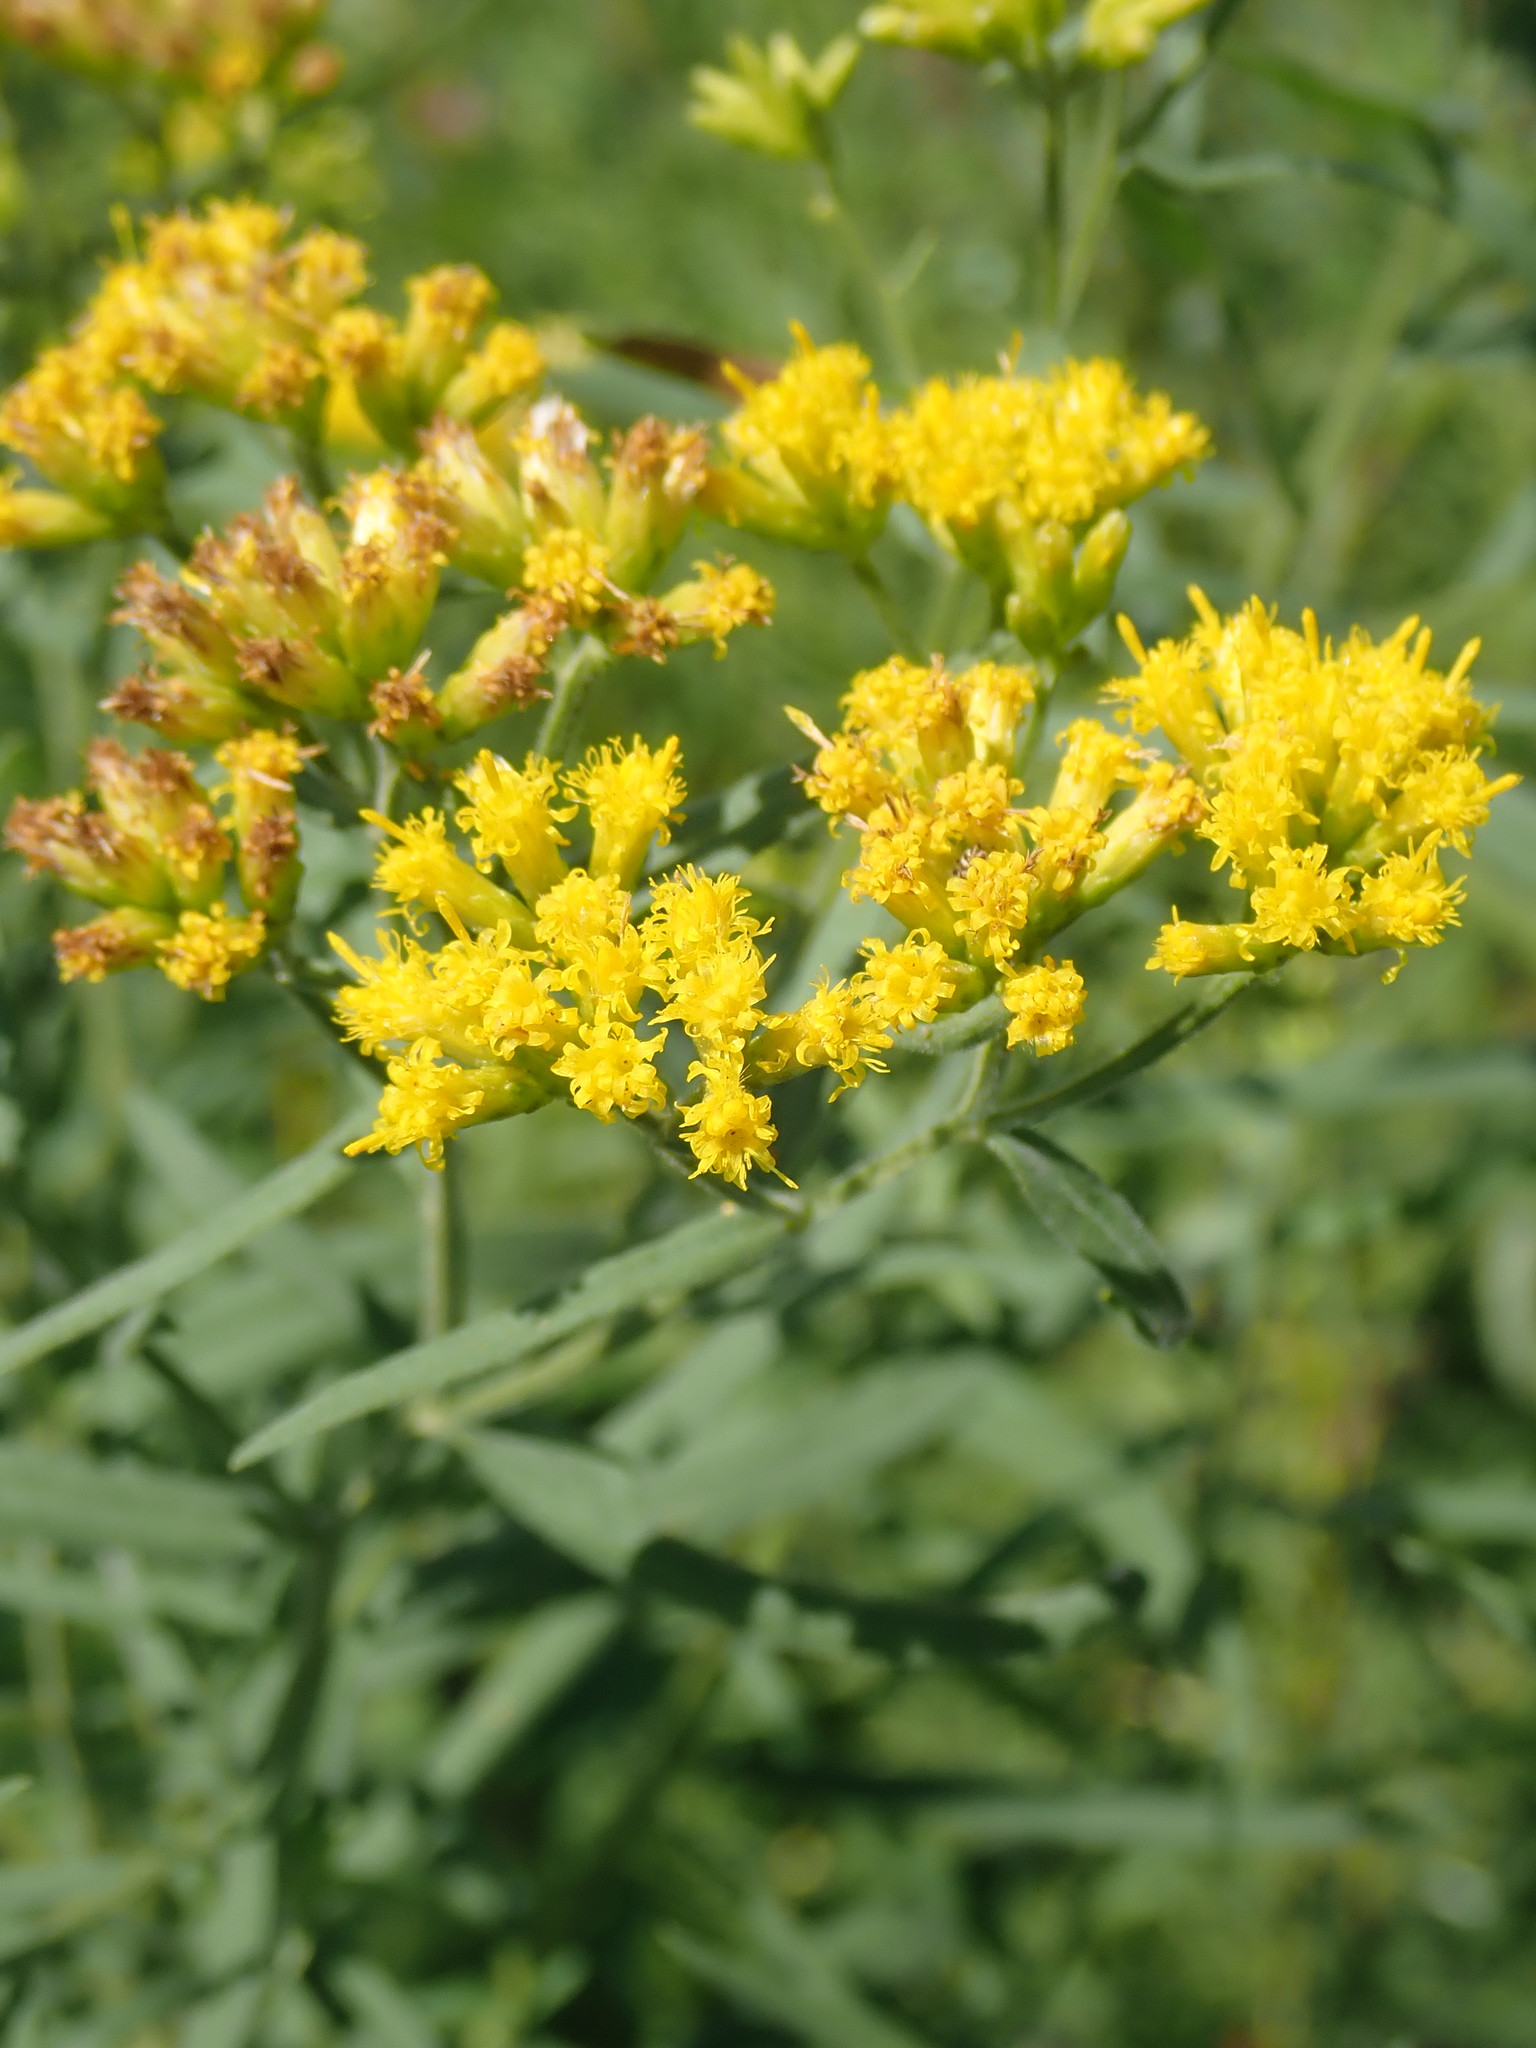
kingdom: Plantae
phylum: Tracheophyta
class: Magnoliopsida
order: Asterales
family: Asteraceae
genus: Euthamia
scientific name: Euthamia graminifolia
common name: Common goldentop
